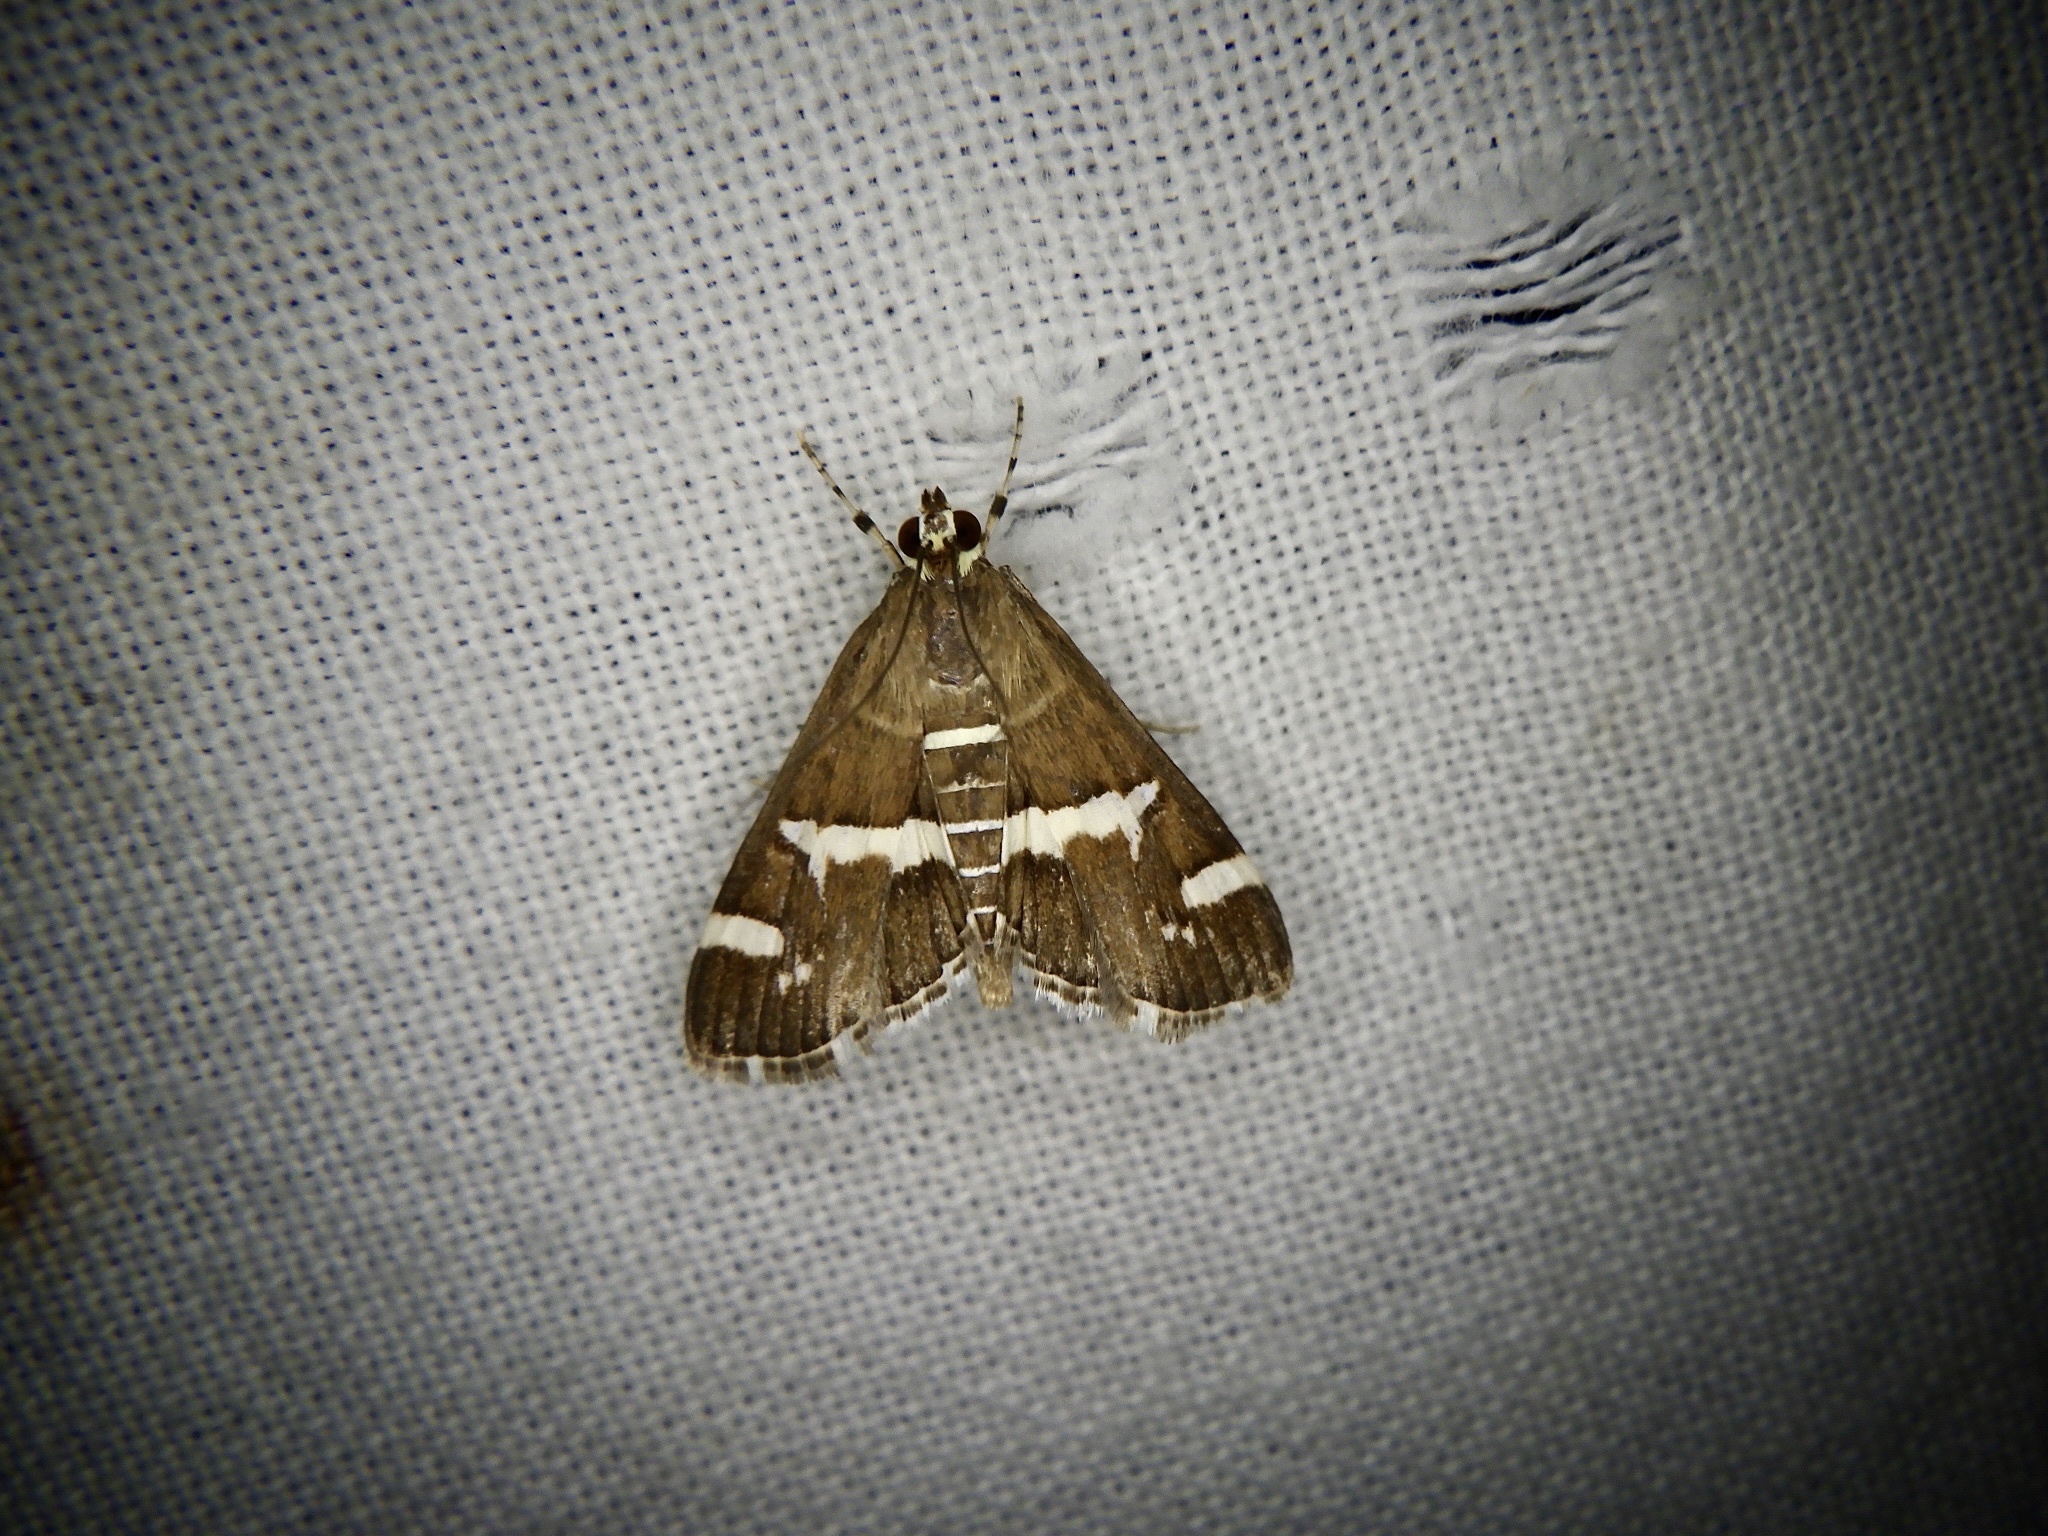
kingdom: Animalia
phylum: Arthropoda
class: Insecta
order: Lepidoptera
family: Crambidae
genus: Spoladea
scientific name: Spoladea recurvalis
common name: Beet webworm moth
